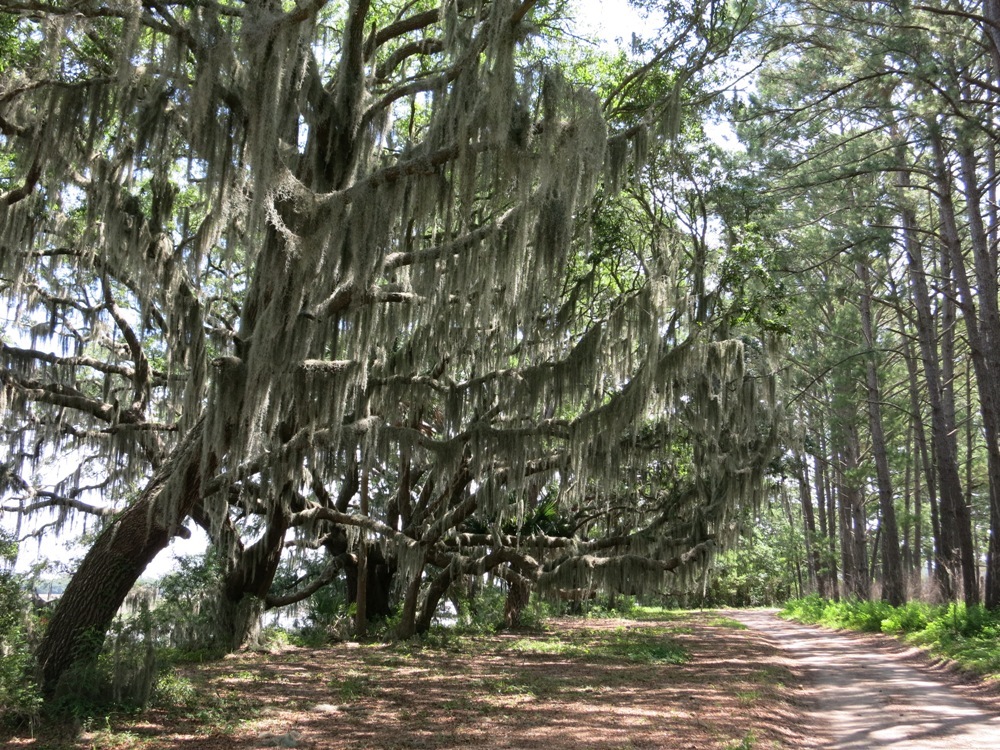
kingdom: Plantae
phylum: Tracheophyta
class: Magnoliopsida
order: Fagales
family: Fagaceae
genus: Quercus
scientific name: Quercus virginiana
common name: Southern live oak
